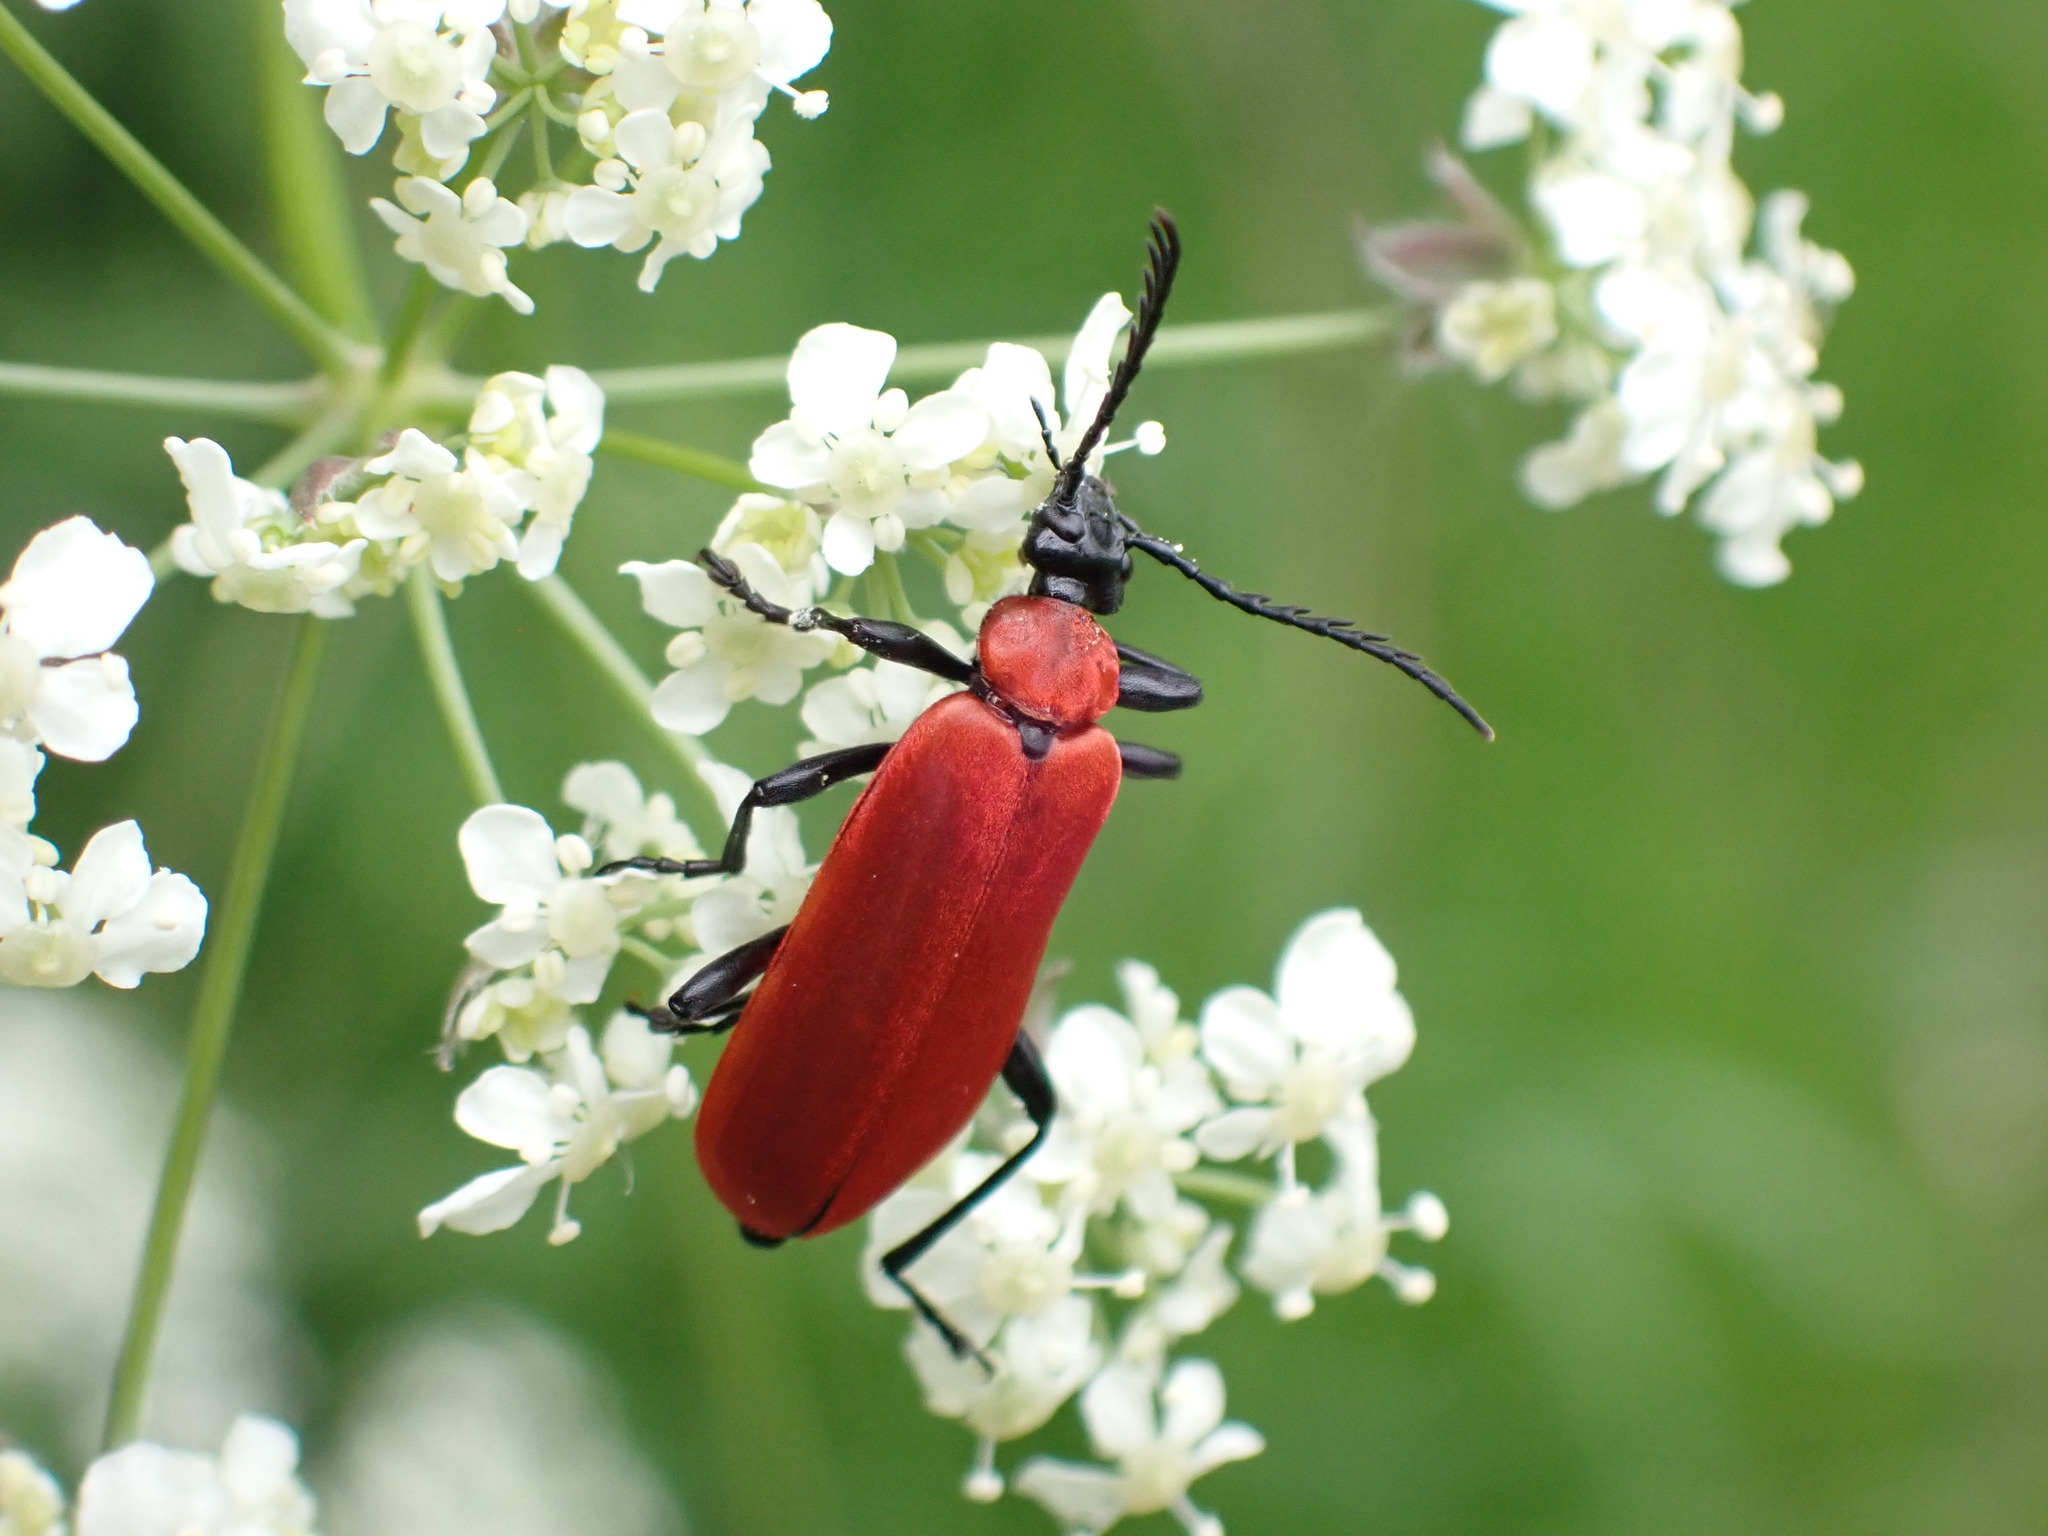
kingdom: Animalia
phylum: Arthropoda
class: Insecta
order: Coleoptera
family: Pyrochroidae
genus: Pyrochroa
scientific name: Pyrochroa coccinea
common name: Black-headed cardinal beetle
